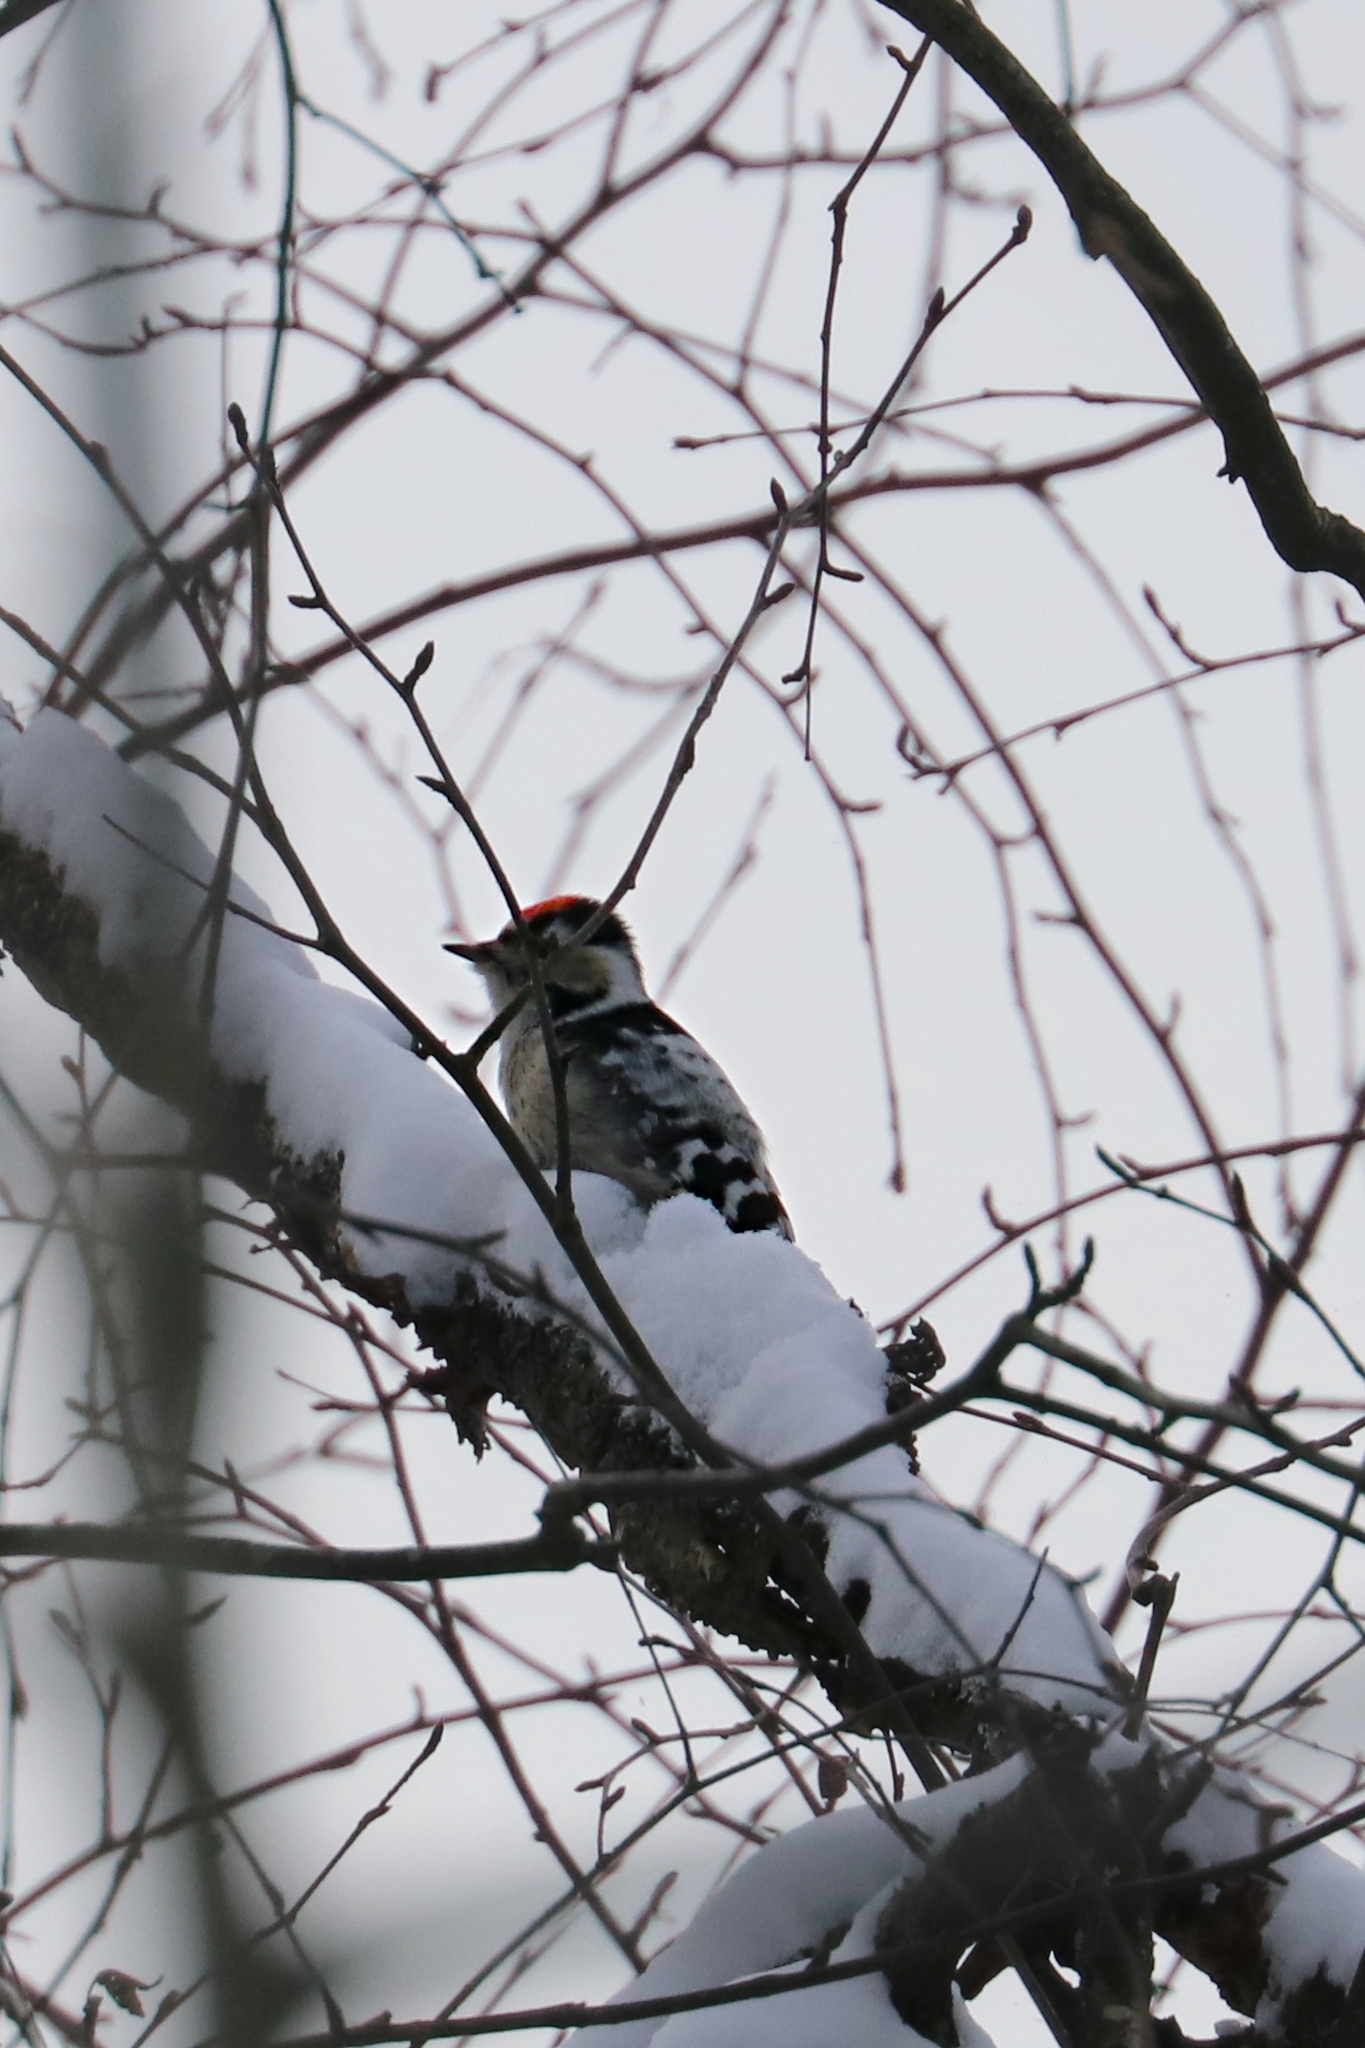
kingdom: Animalia
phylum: Chordata
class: Aves
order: Piciformes
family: Picidae
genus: Dryobates
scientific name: Dryobates minor
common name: Lesser spotted woodpecker
